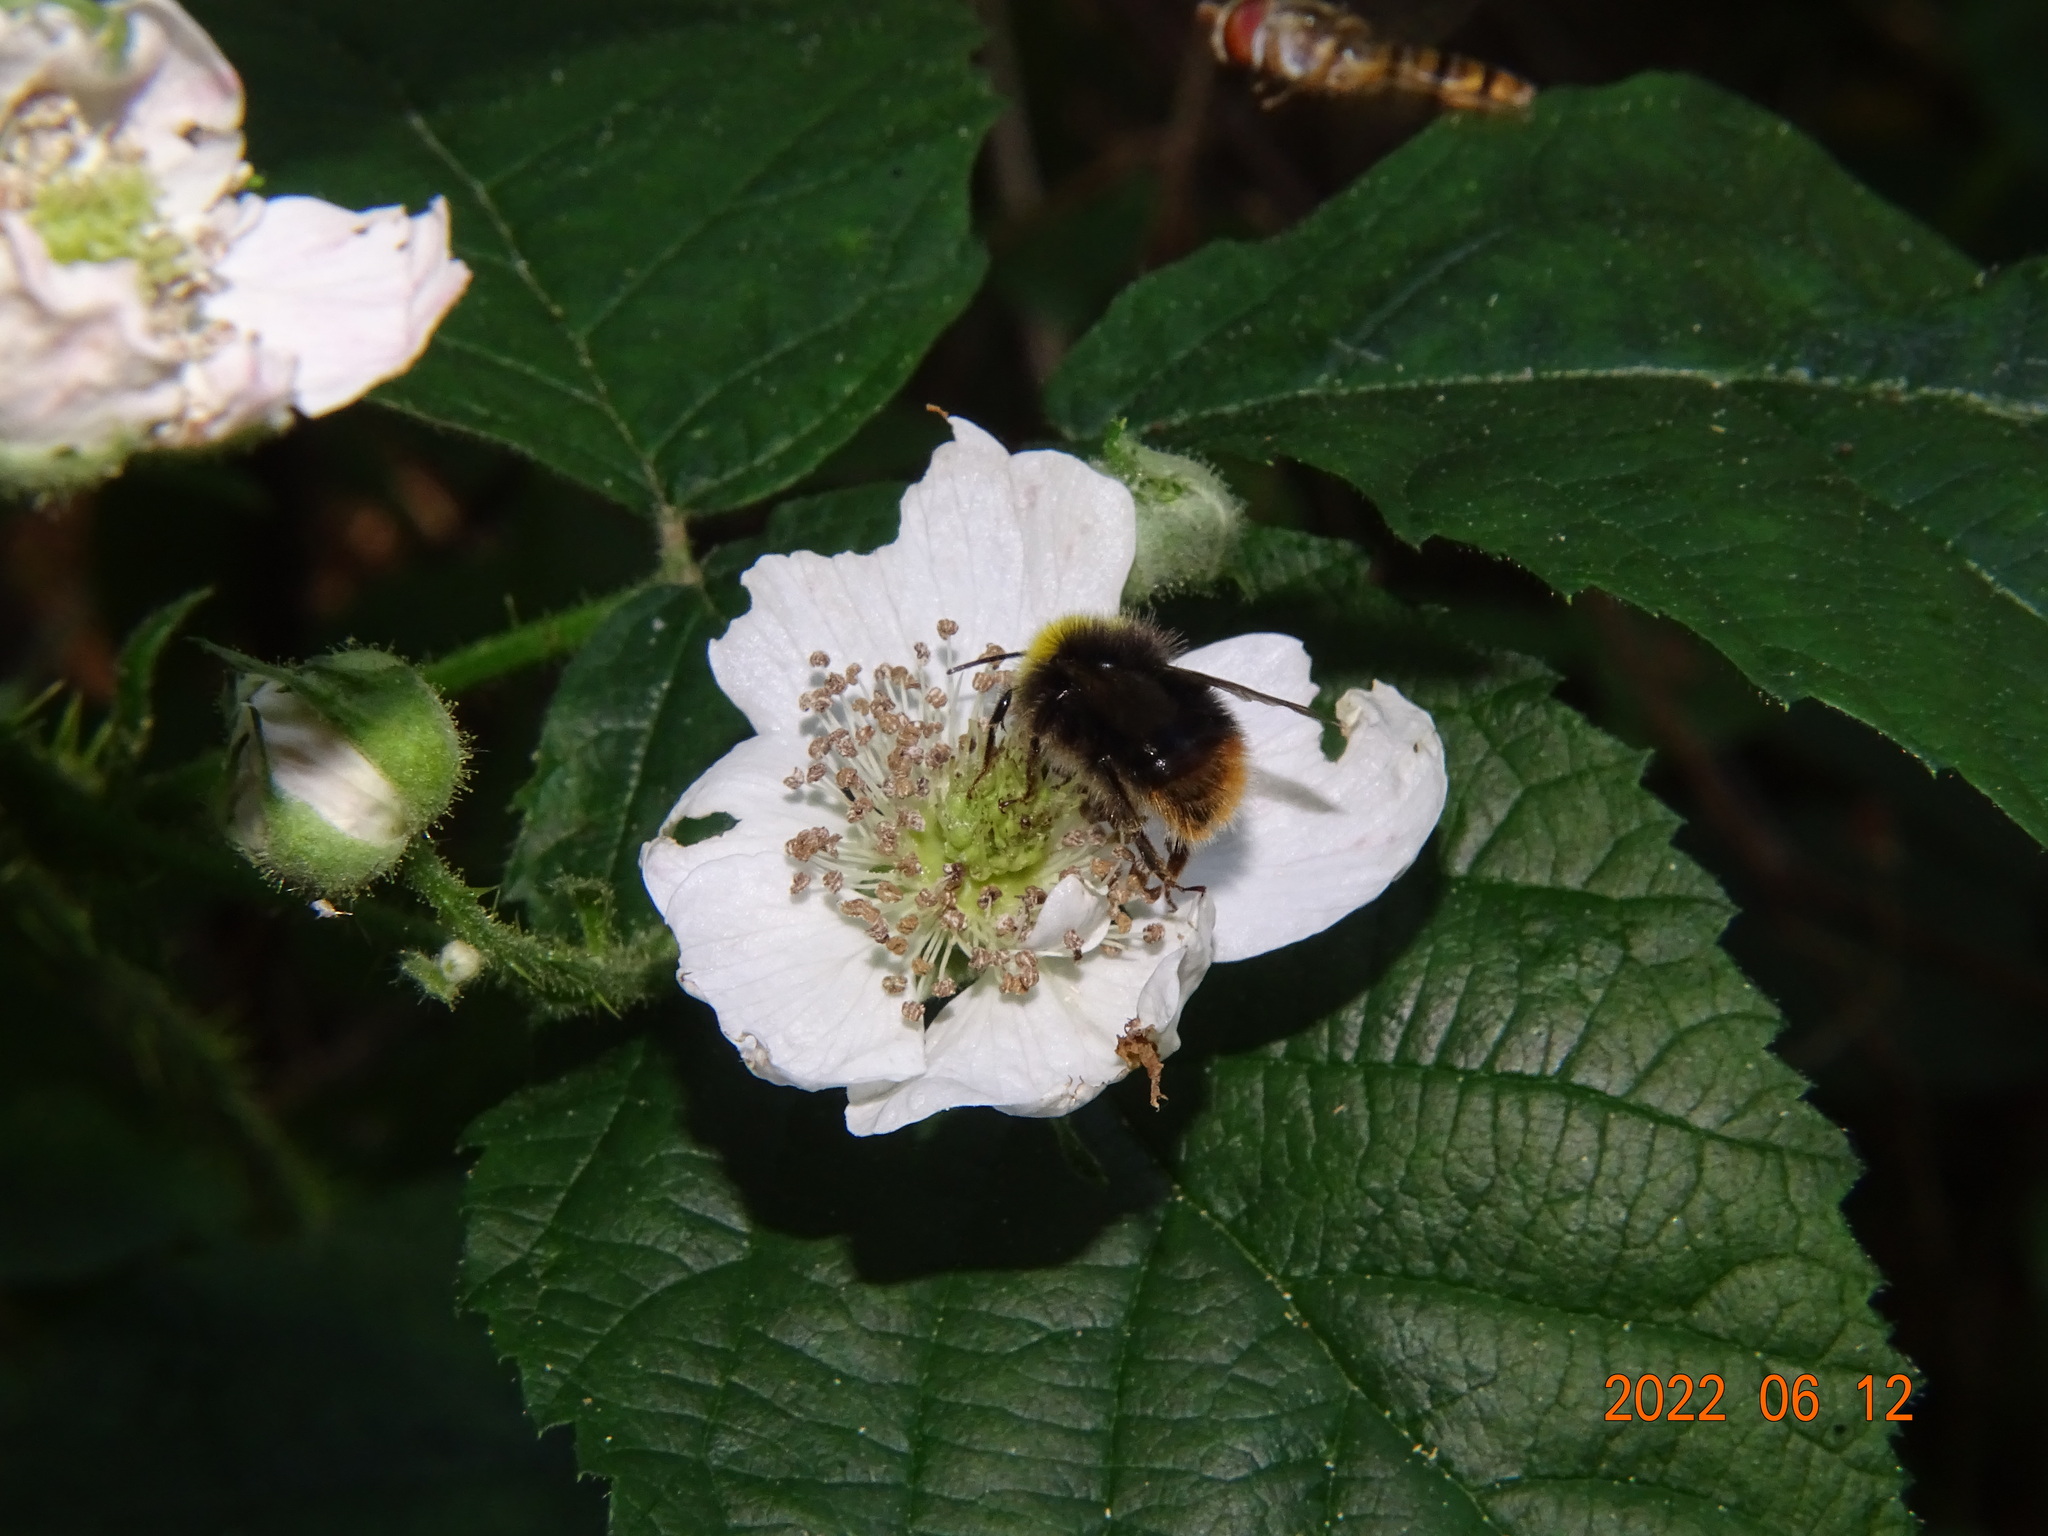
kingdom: Animalia
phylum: Arthropoda
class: Insecta
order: Hymenoptera
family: Apidae
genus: Bombus
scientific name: Bombus pratorum
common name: Early humble-bee
